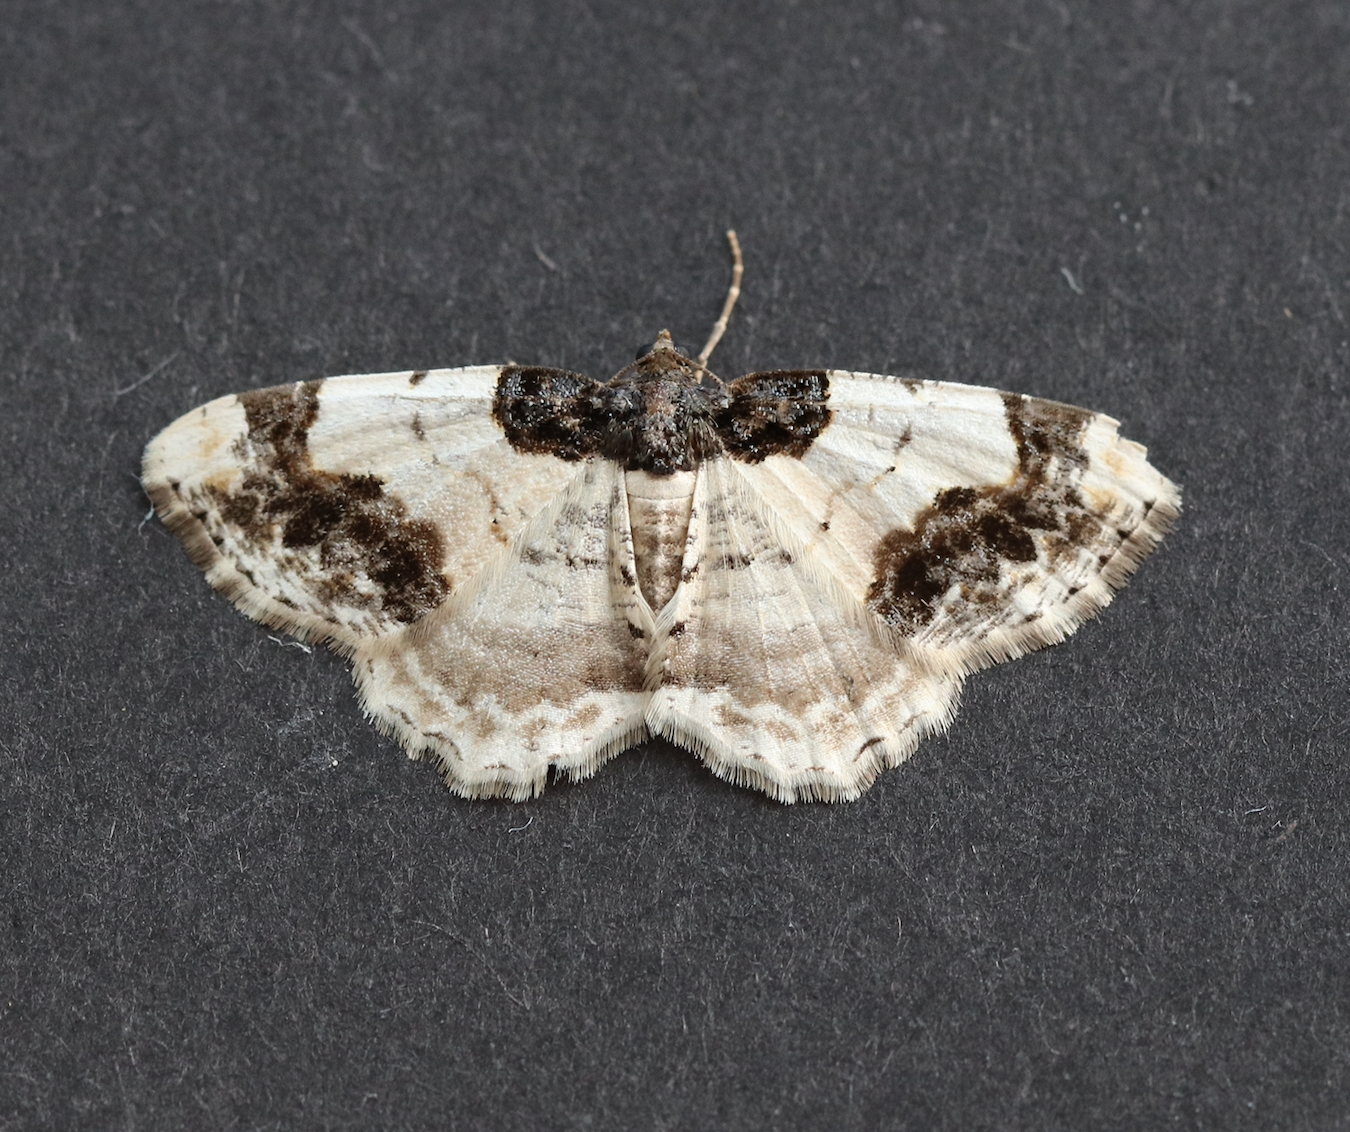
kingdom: Animalia
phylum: Arthropoda
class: Insecta
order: Lepidoptera
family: Geometridae
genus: Ligdia
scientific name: Ligdia adustata
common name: Scorched carpet
